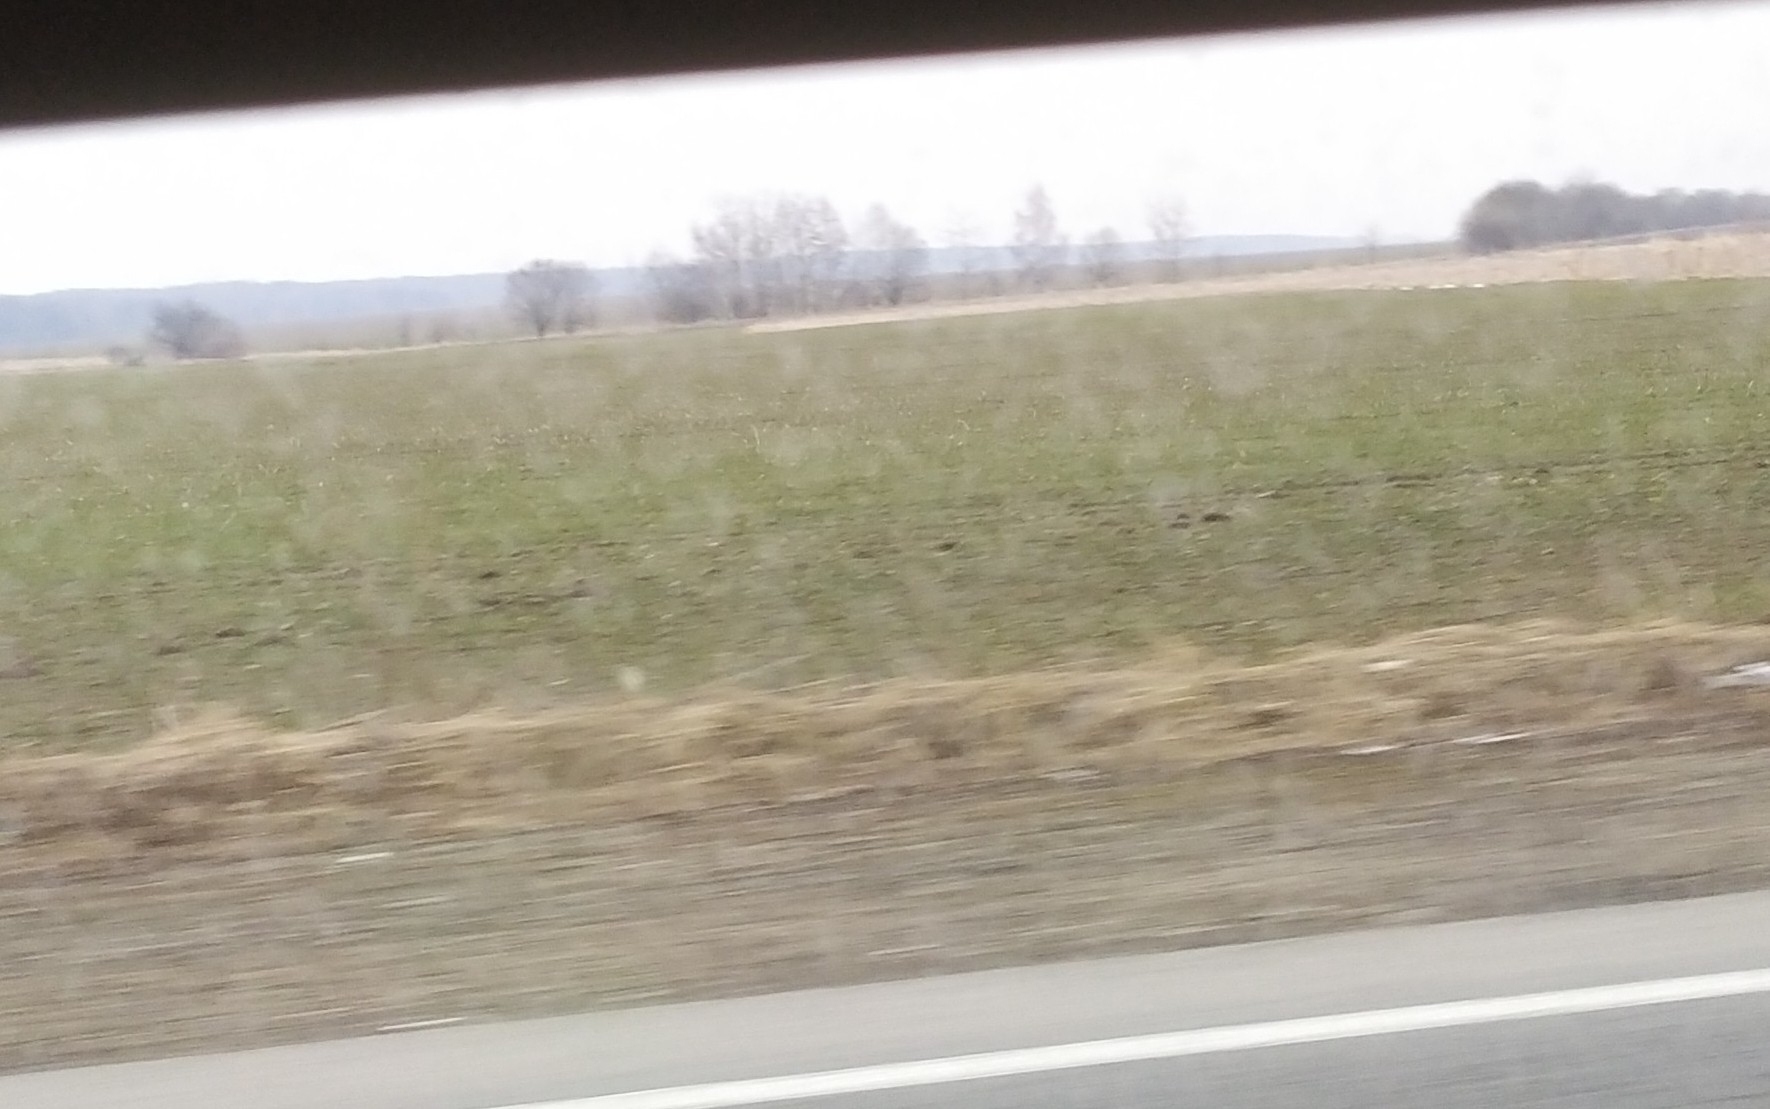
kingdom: Animalia
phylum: Chordata
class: Mammalia
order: Soricomorpha
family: Talpidae
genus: Talpa
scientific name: Talpa europaea
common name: European mole
